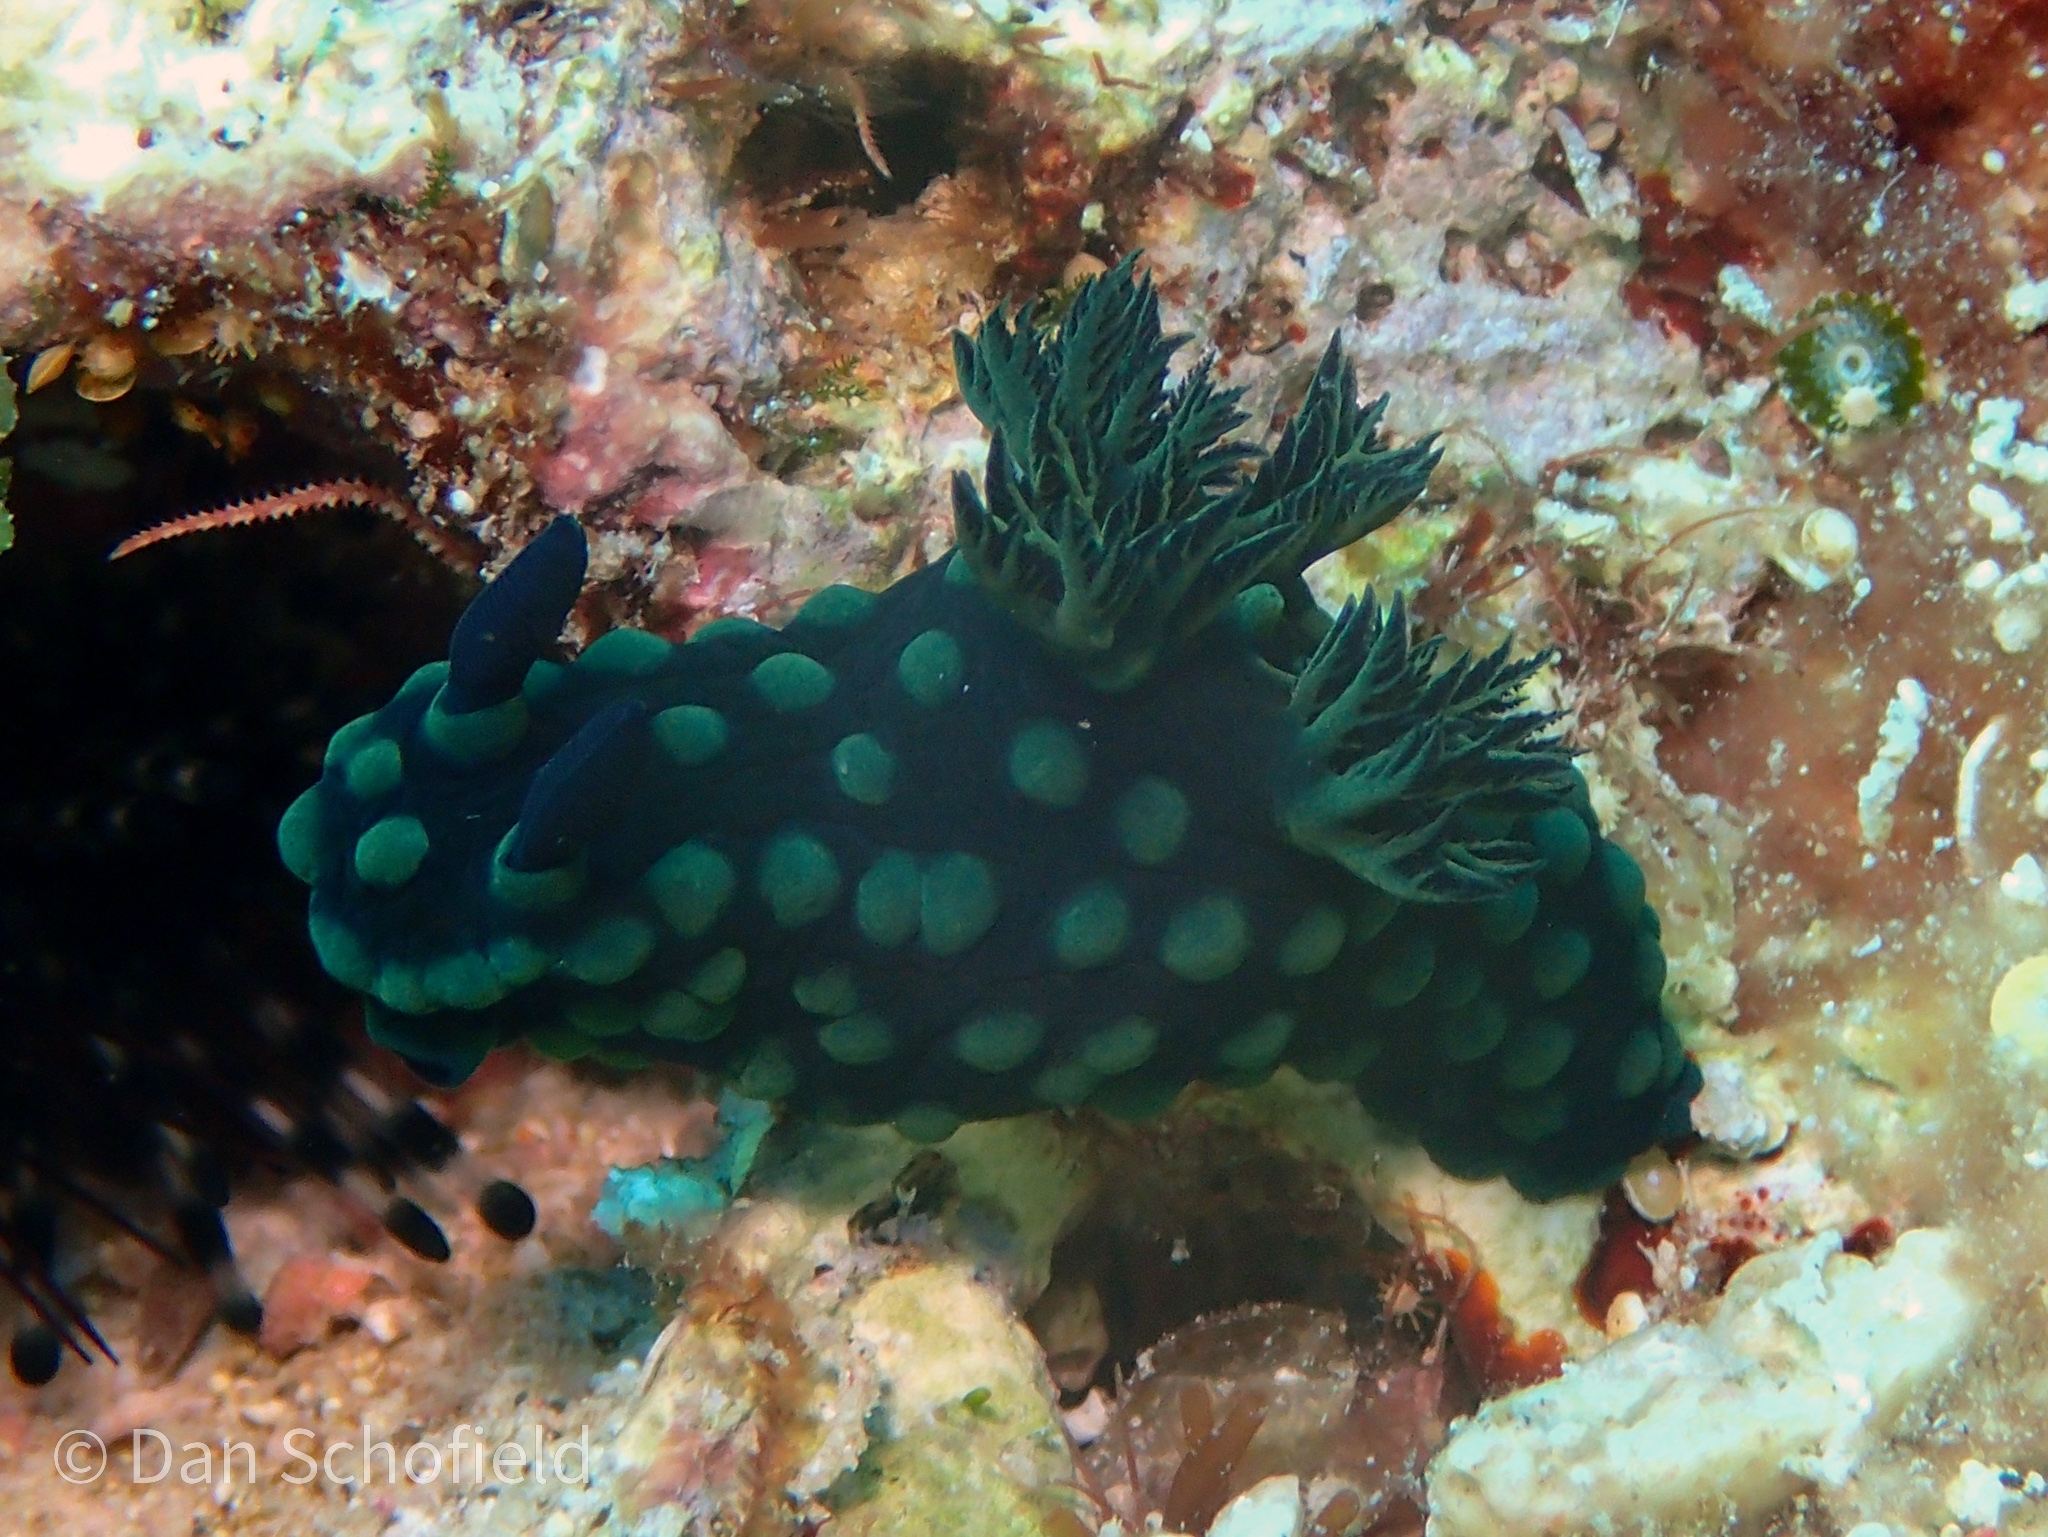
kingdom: Animalia
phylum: Mollusca
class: Gastropoda
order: Nudibranchia
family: Polyceridae
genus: Nembrotha
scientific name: Nembrotha cristata
